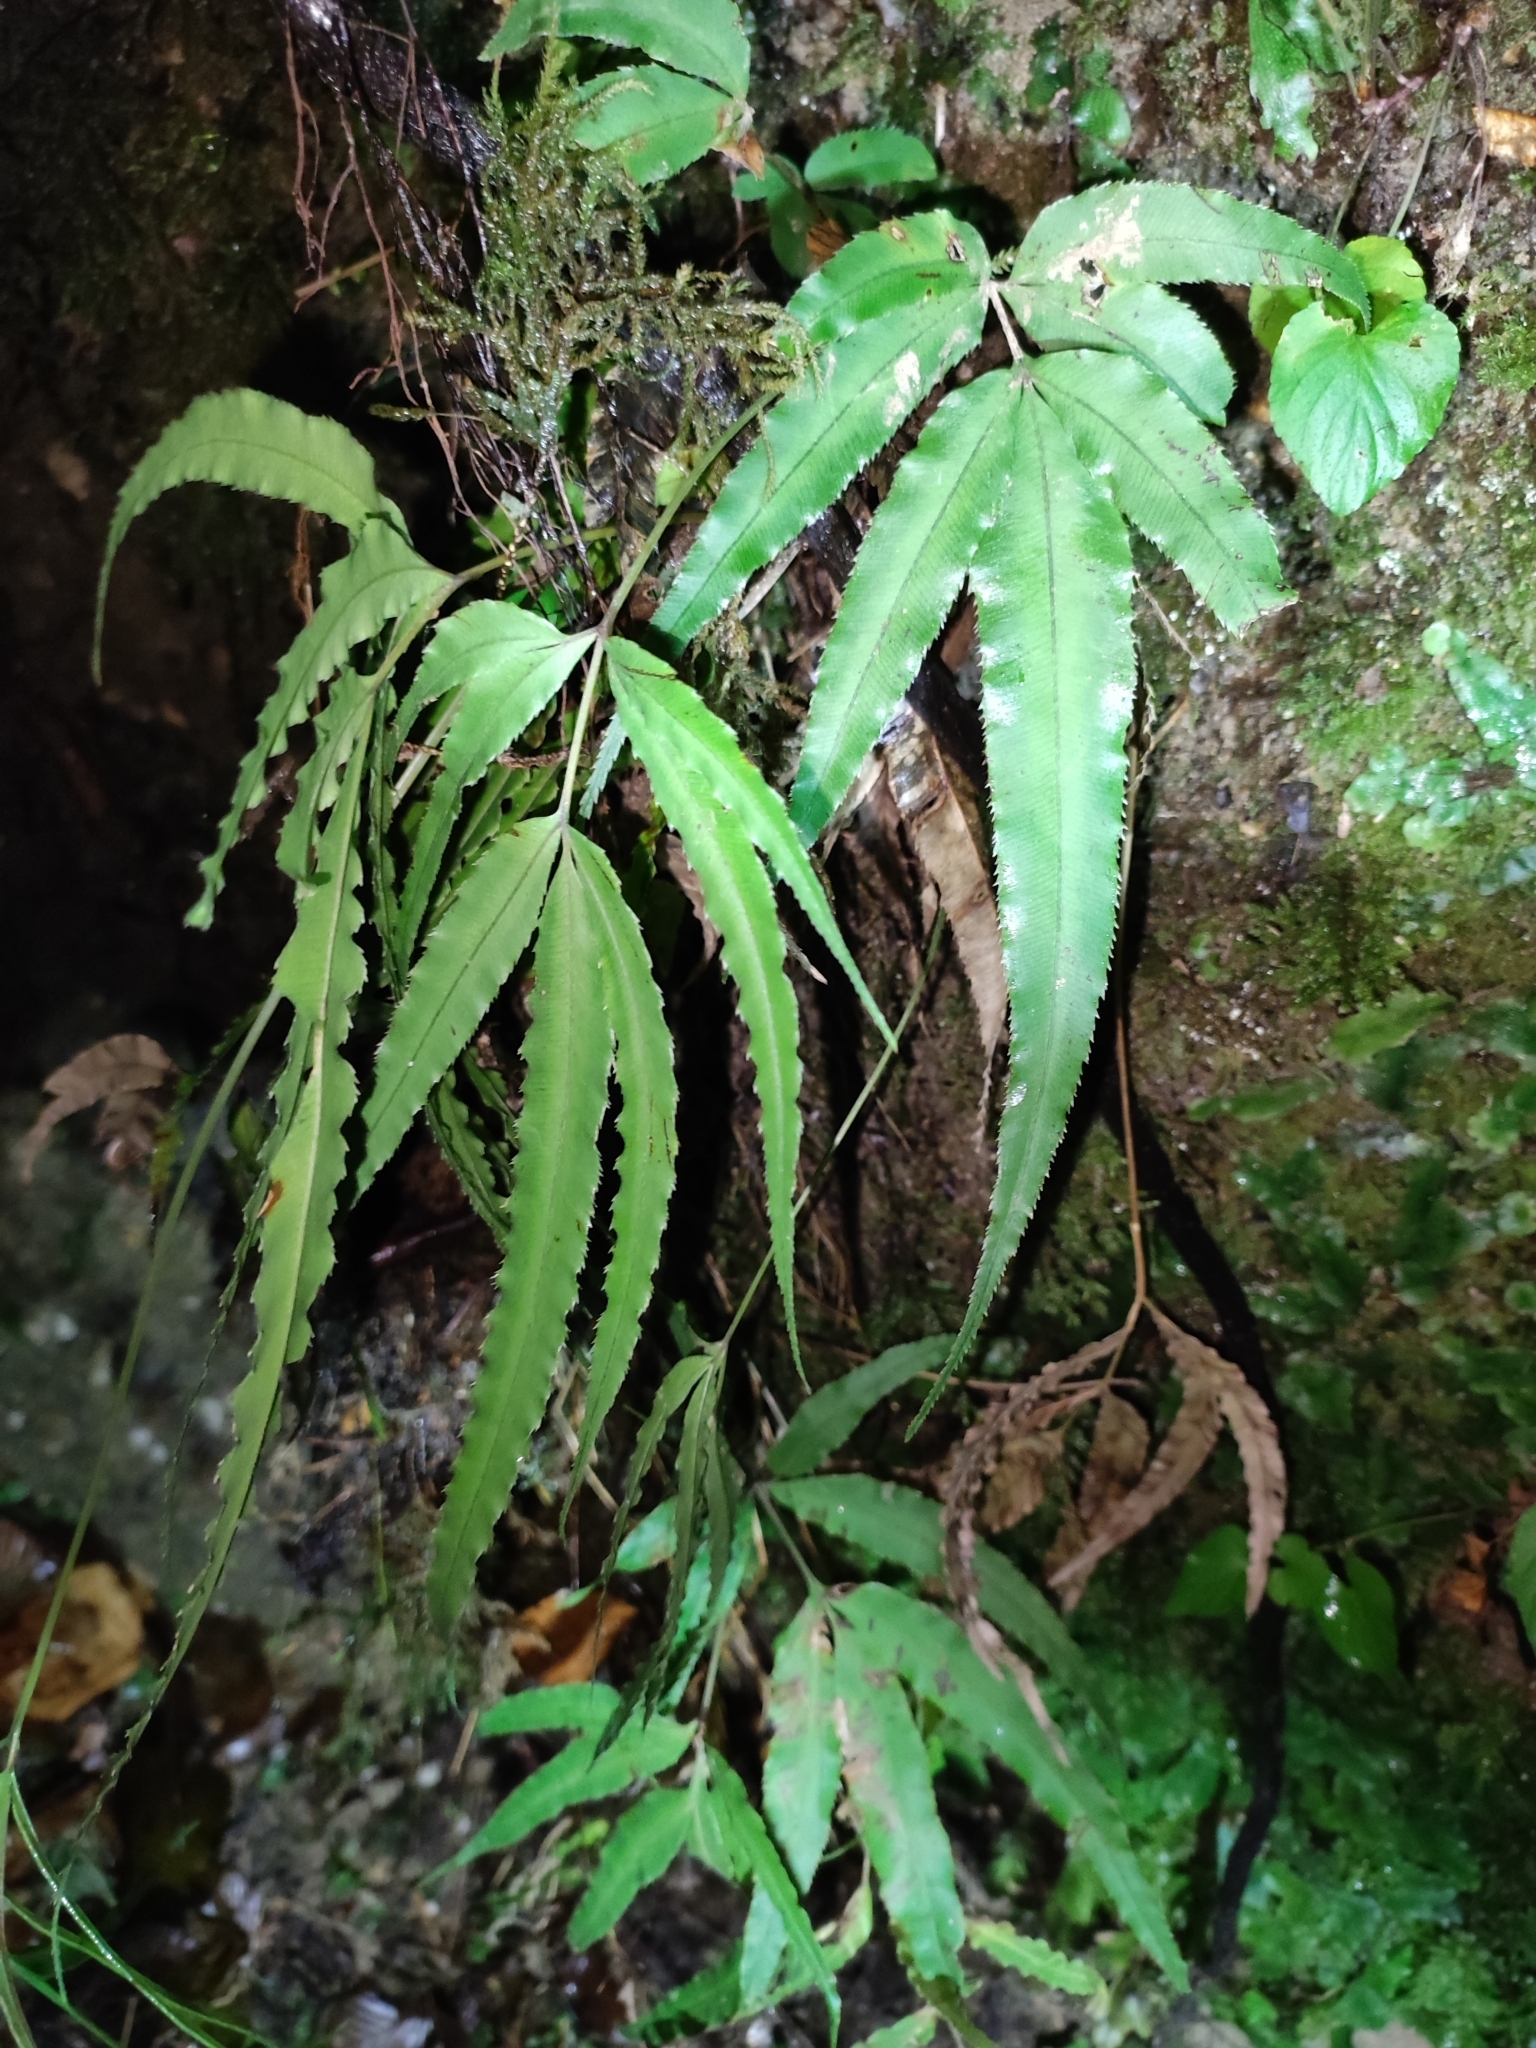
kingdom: Plantae
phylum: Tracheophyta
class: Polypodiopsida
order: Polypodiales
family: Pteridaceae
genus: Pteris
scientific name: Pteris cretica
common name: Ribbon fern
